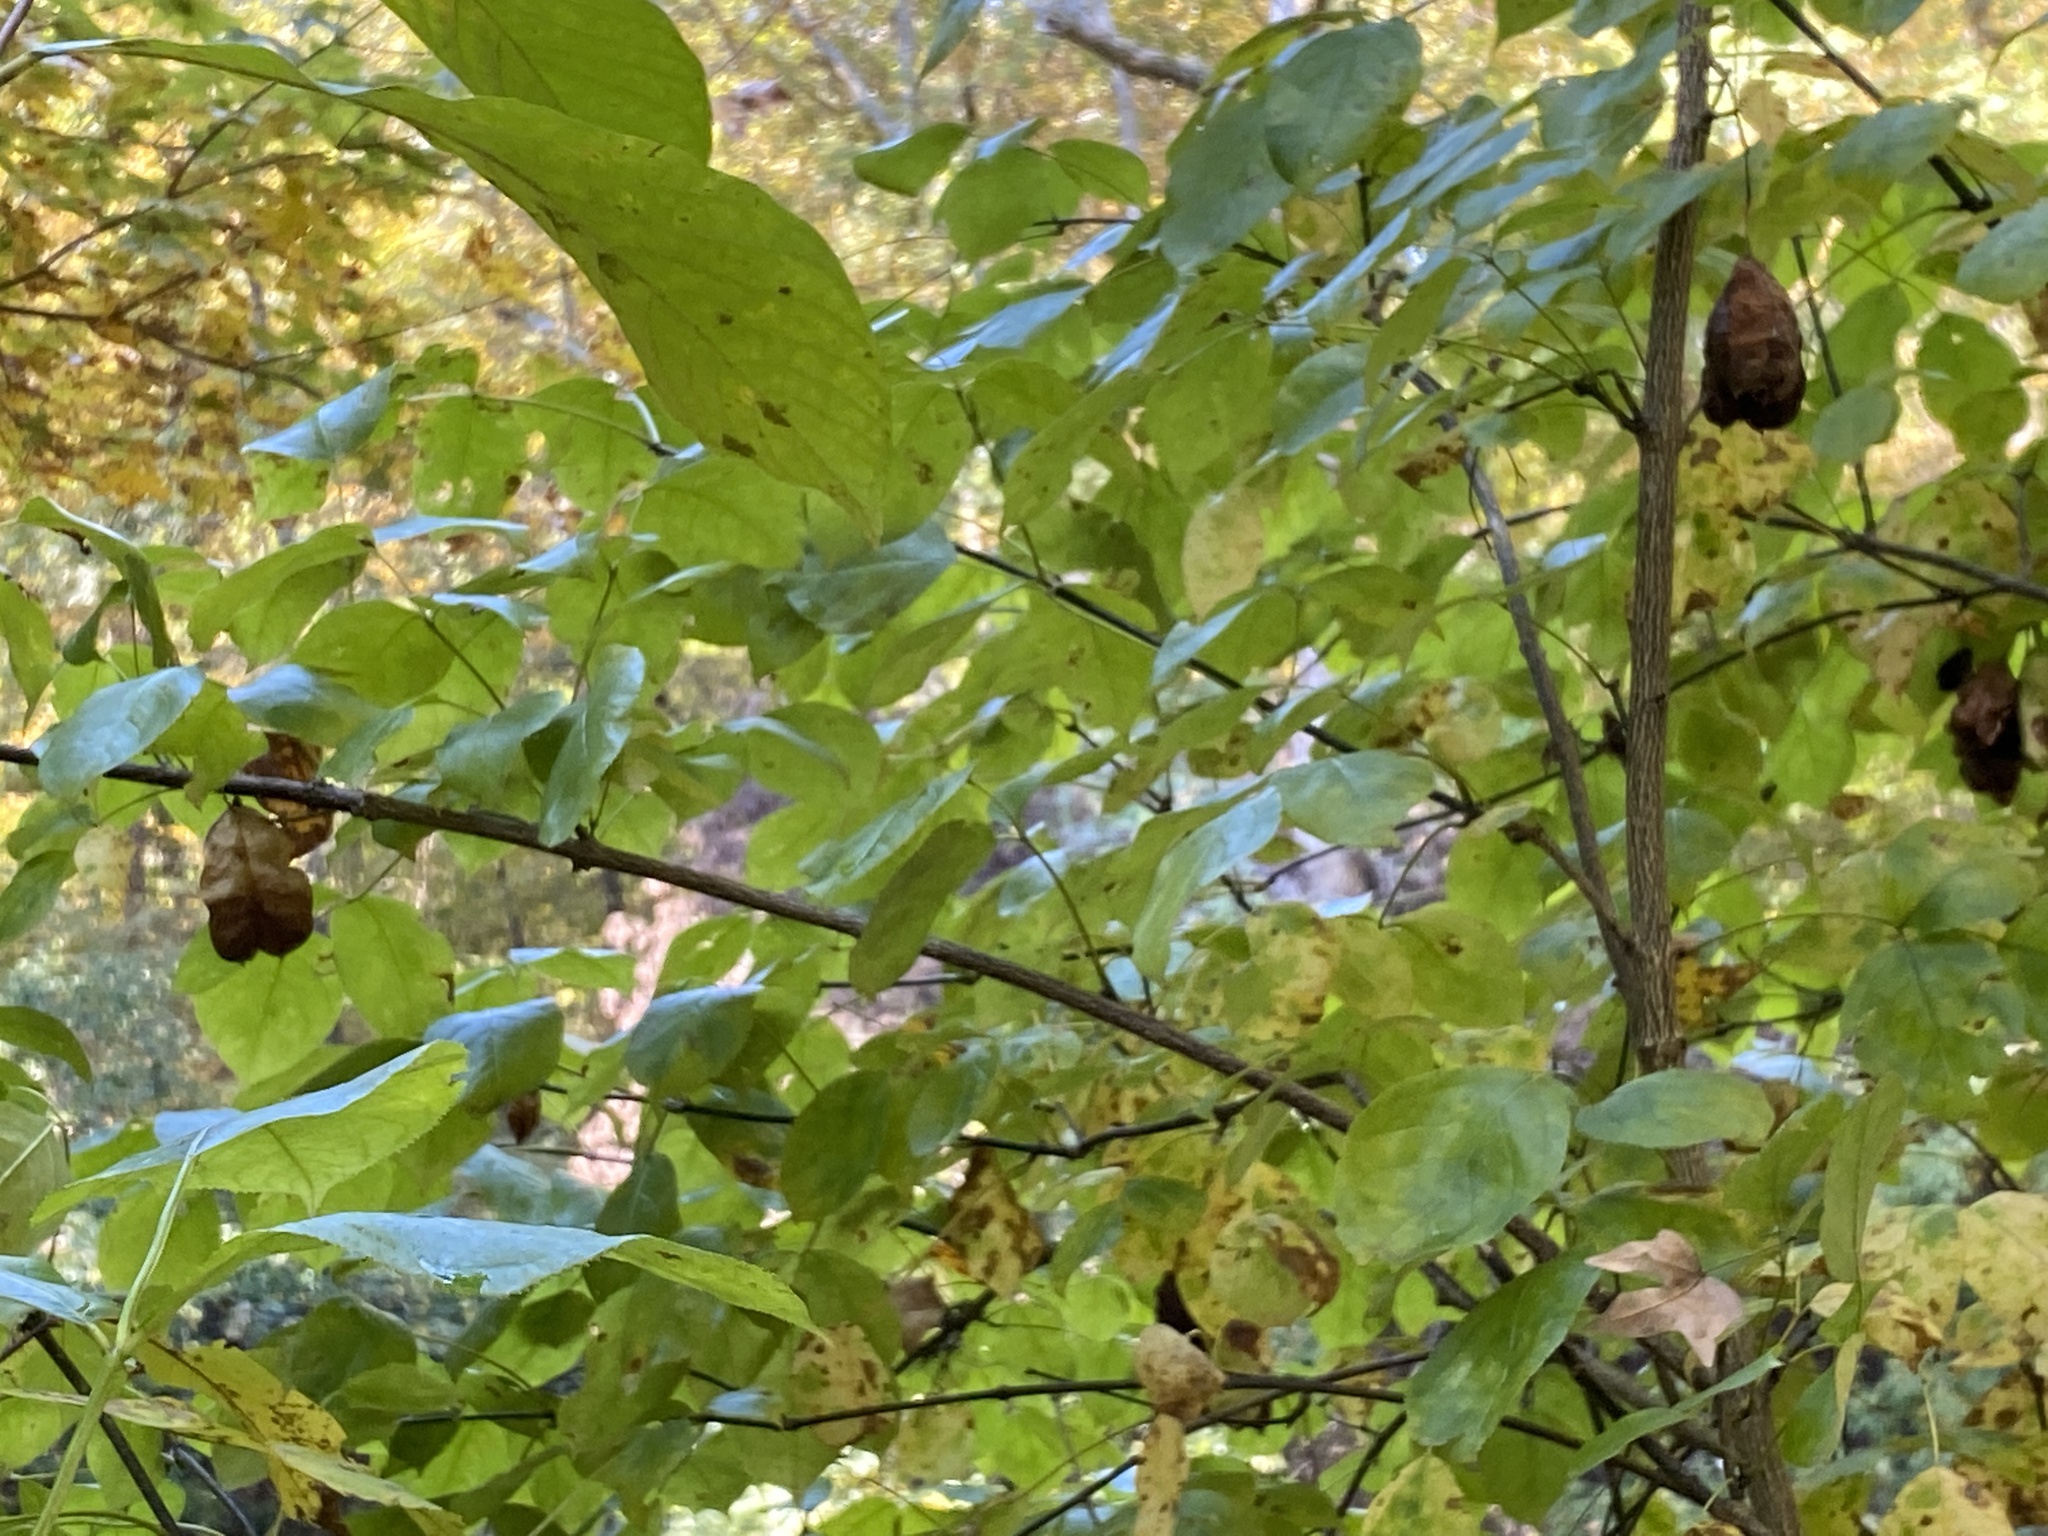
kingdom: Plantae
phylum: Tracheophyta
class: Magnoliopsida
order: Crossosomatales
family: Staphyleaceae
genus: Staphylea
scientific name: Staphylea trifolia
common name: American bladdernut
